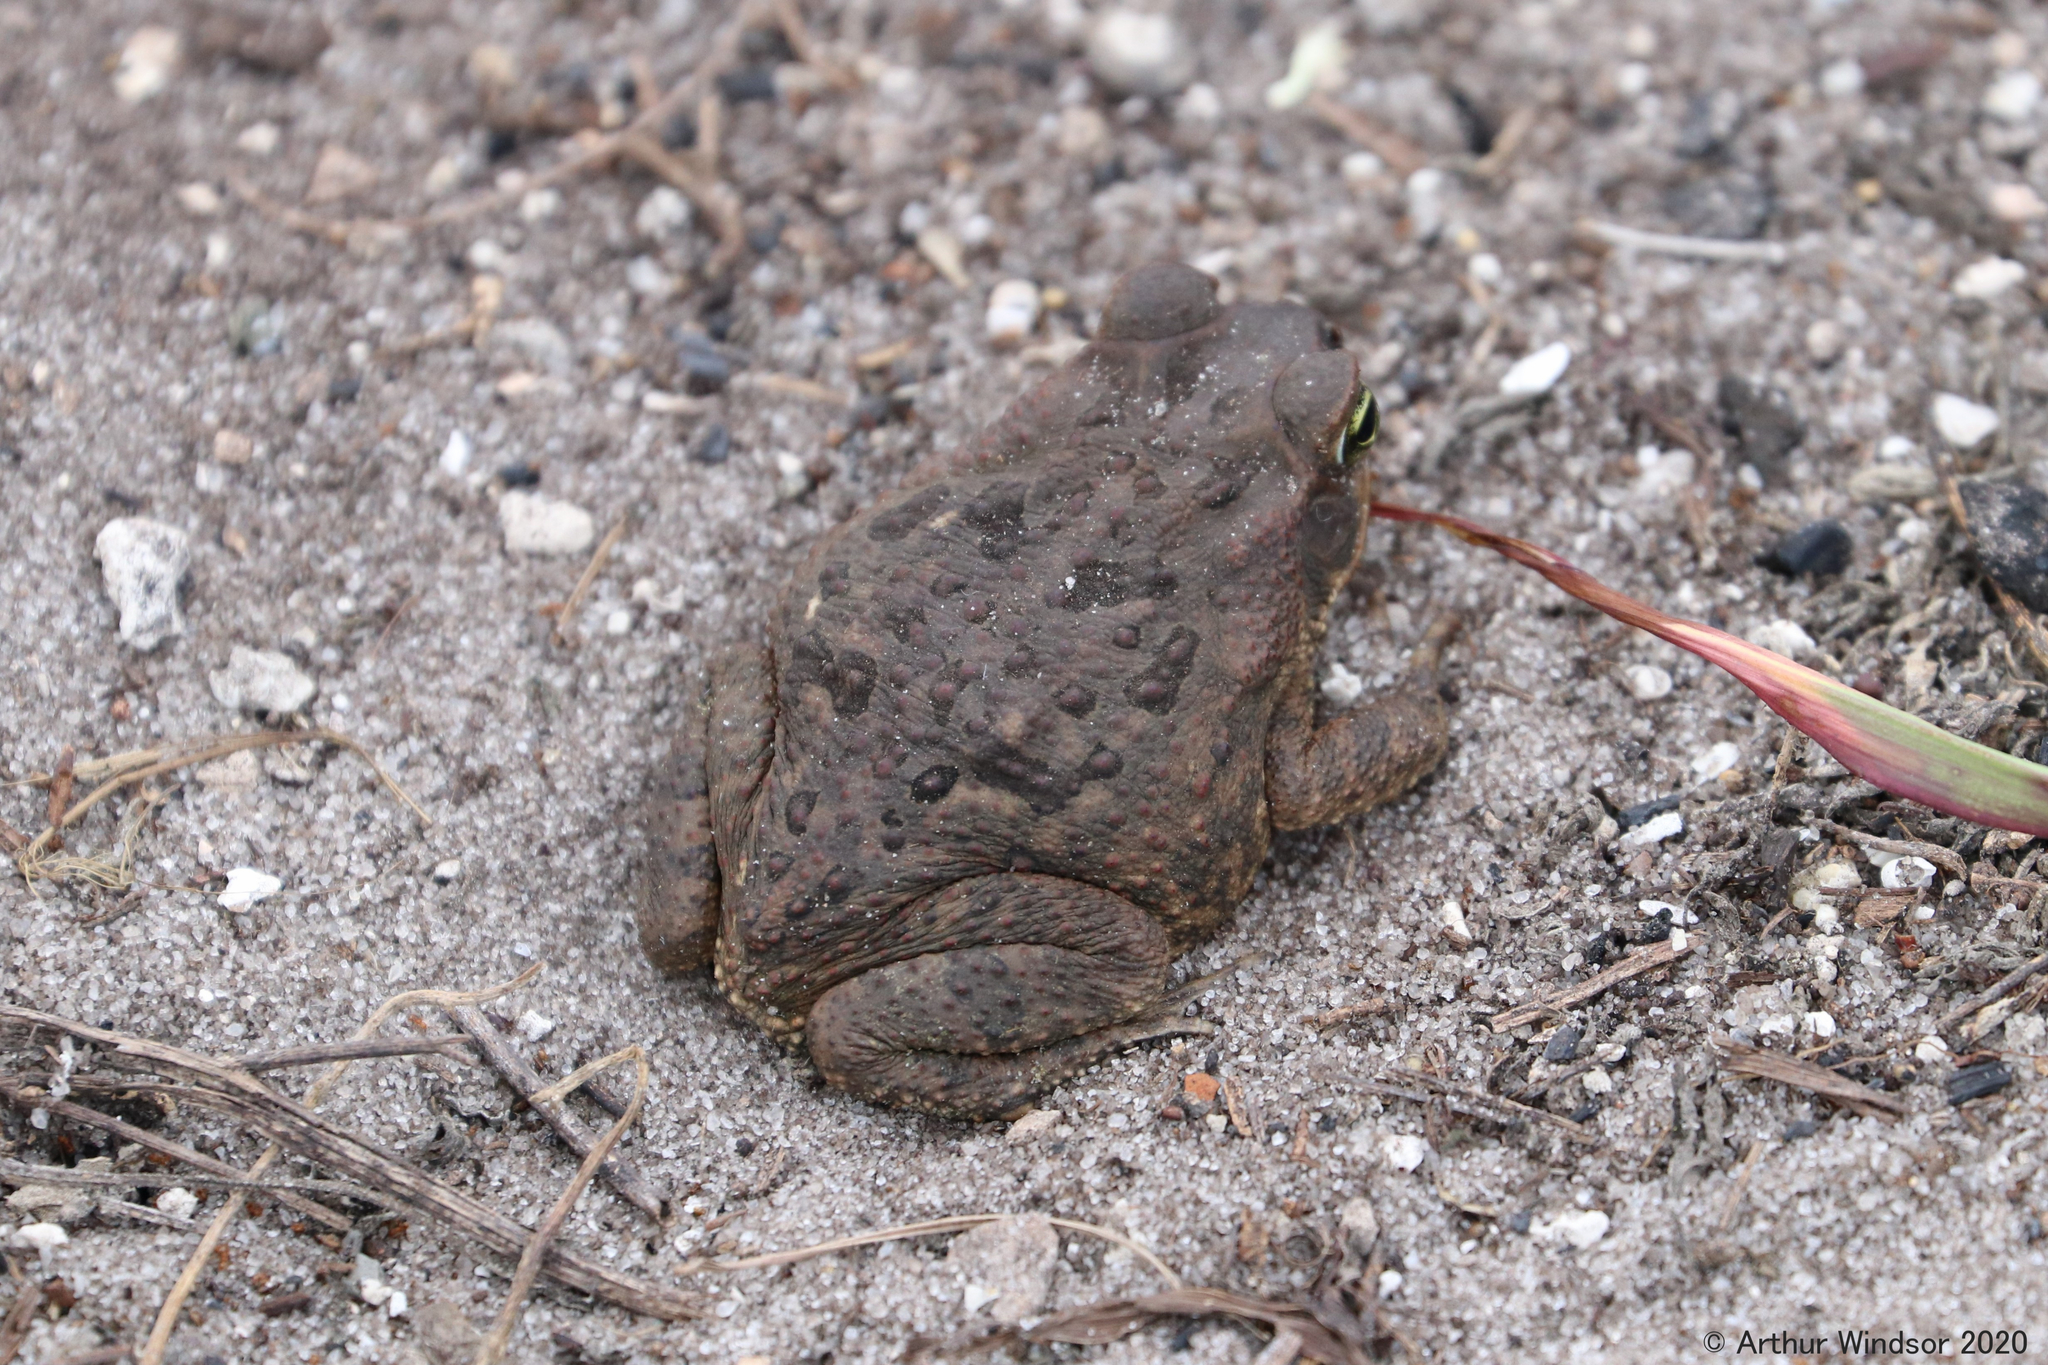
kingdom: Animalia
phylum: Chordata
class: Amphibia
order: Anura
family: Bufonidae
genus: Rhinella
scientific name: Rhinella marina
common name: Cane toad
